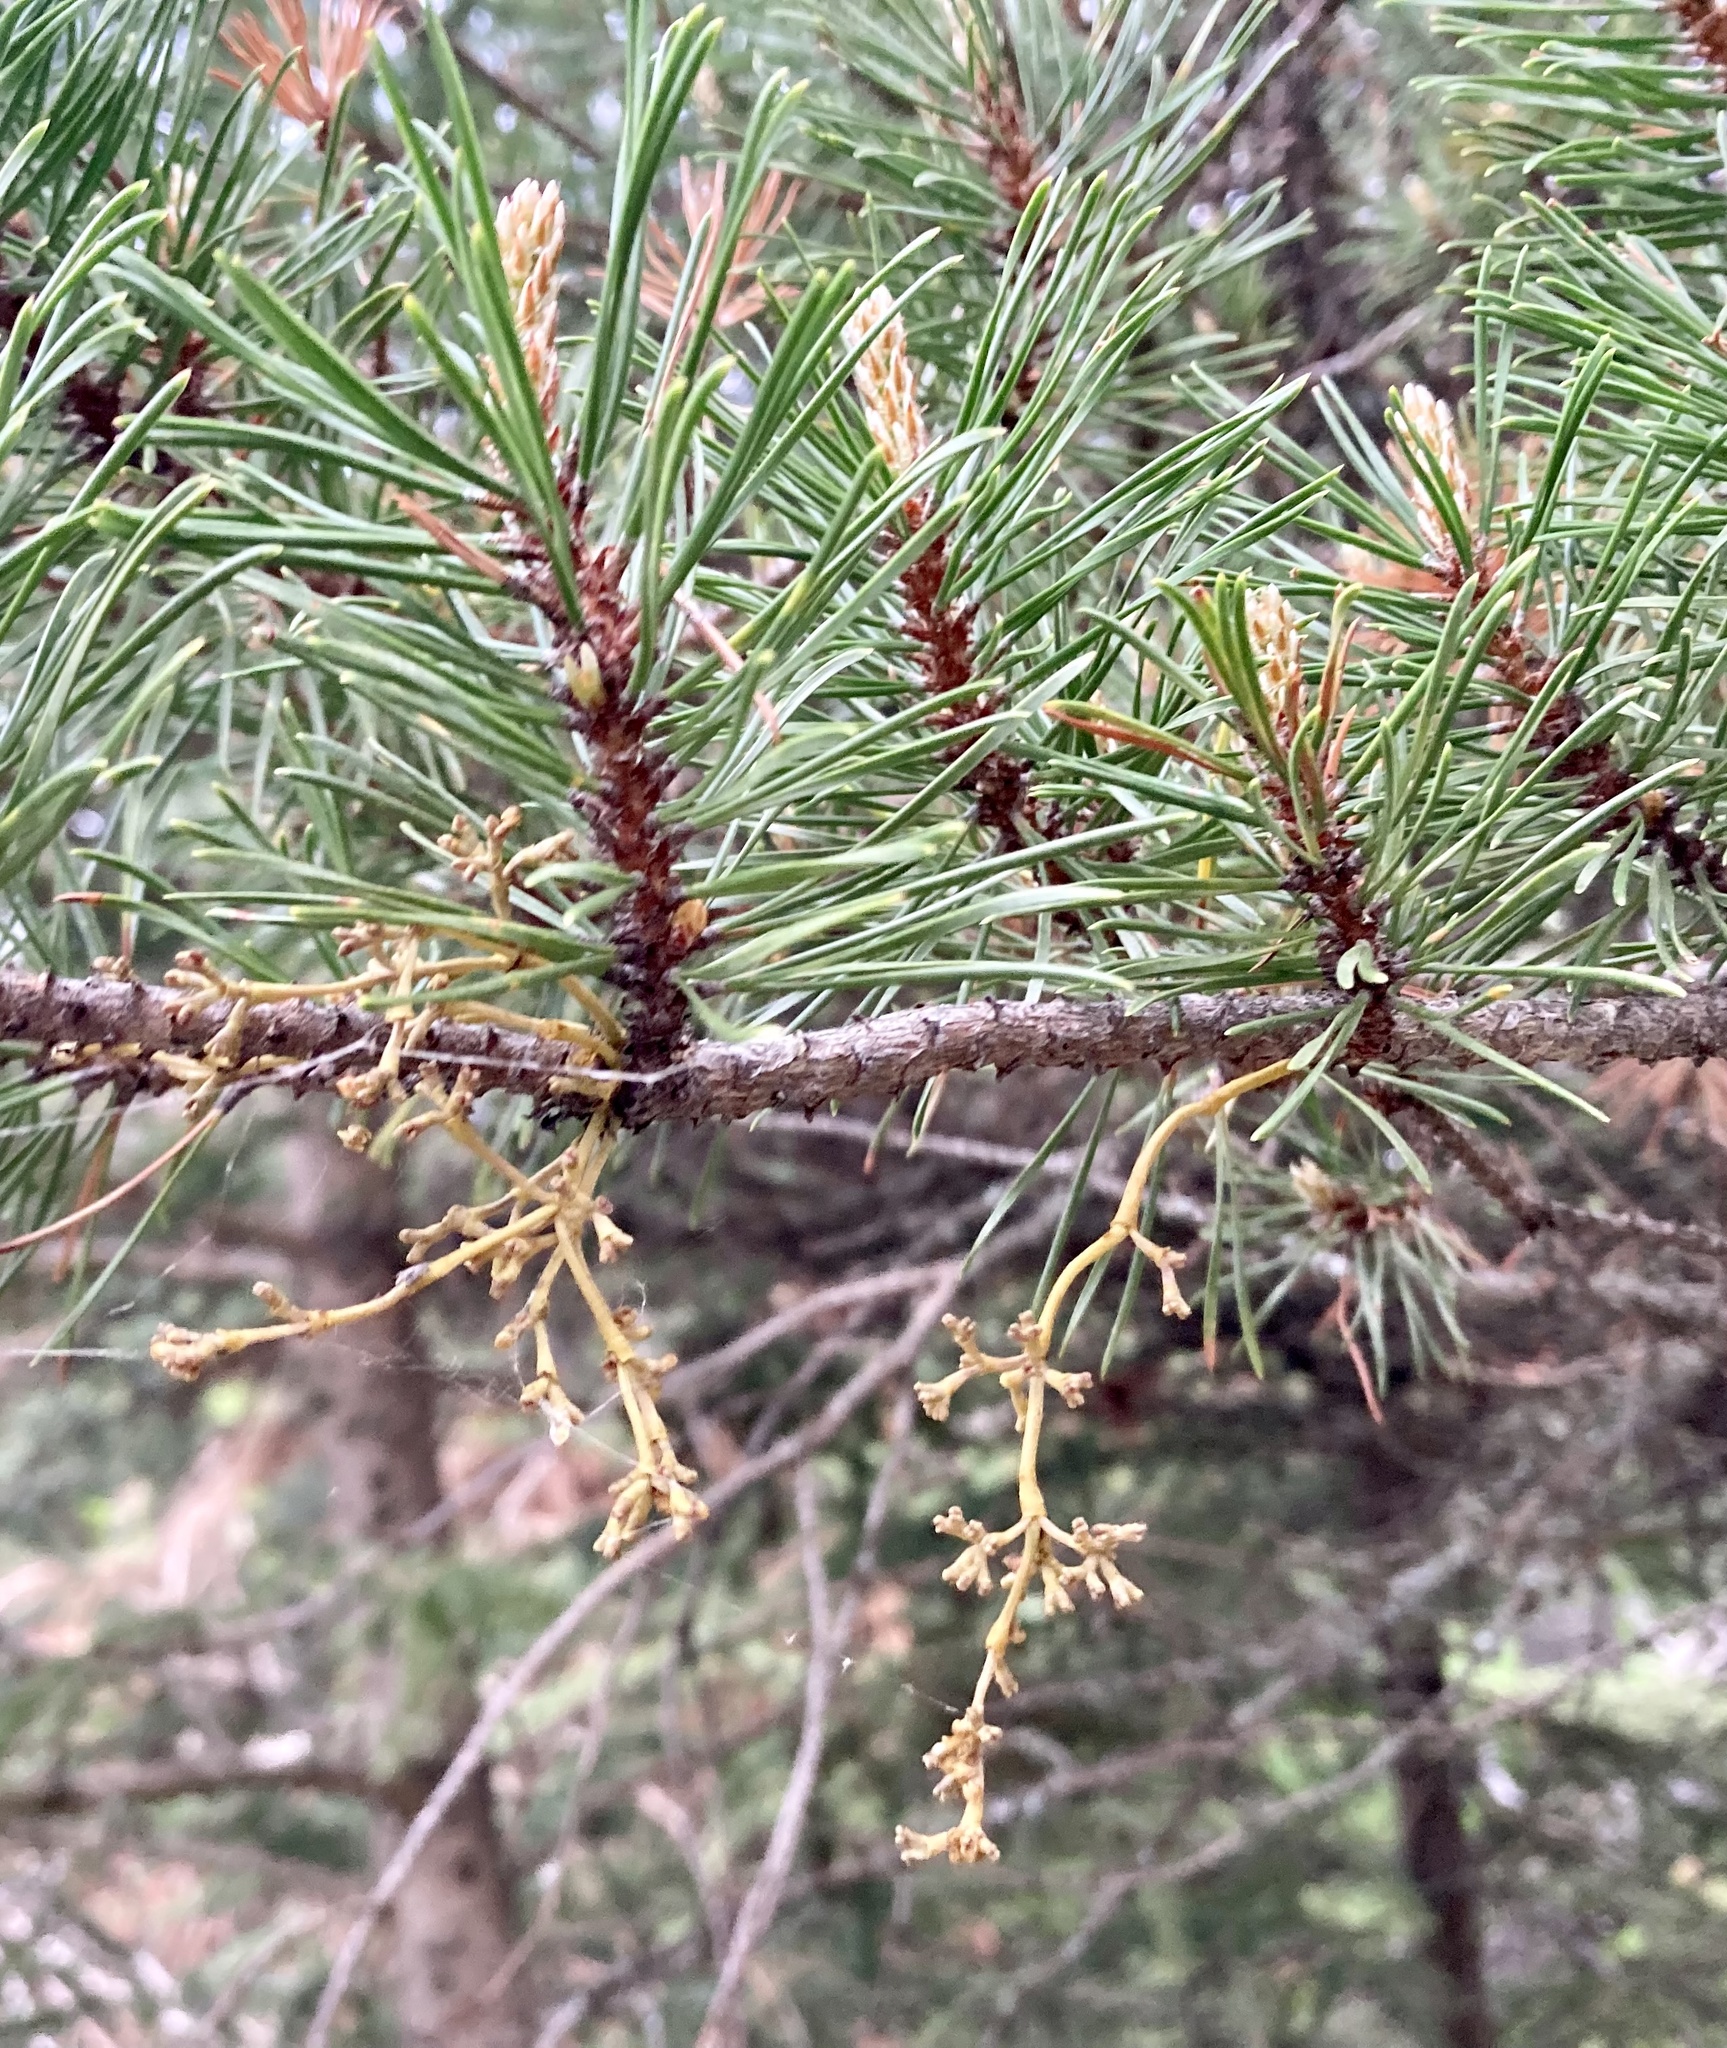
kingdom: Plantae
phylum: Tracheophyta
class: Magnoliopsida
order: Santalales
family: Viscaceae
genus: Arceuthobium
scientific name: Arceuthobium americanum
